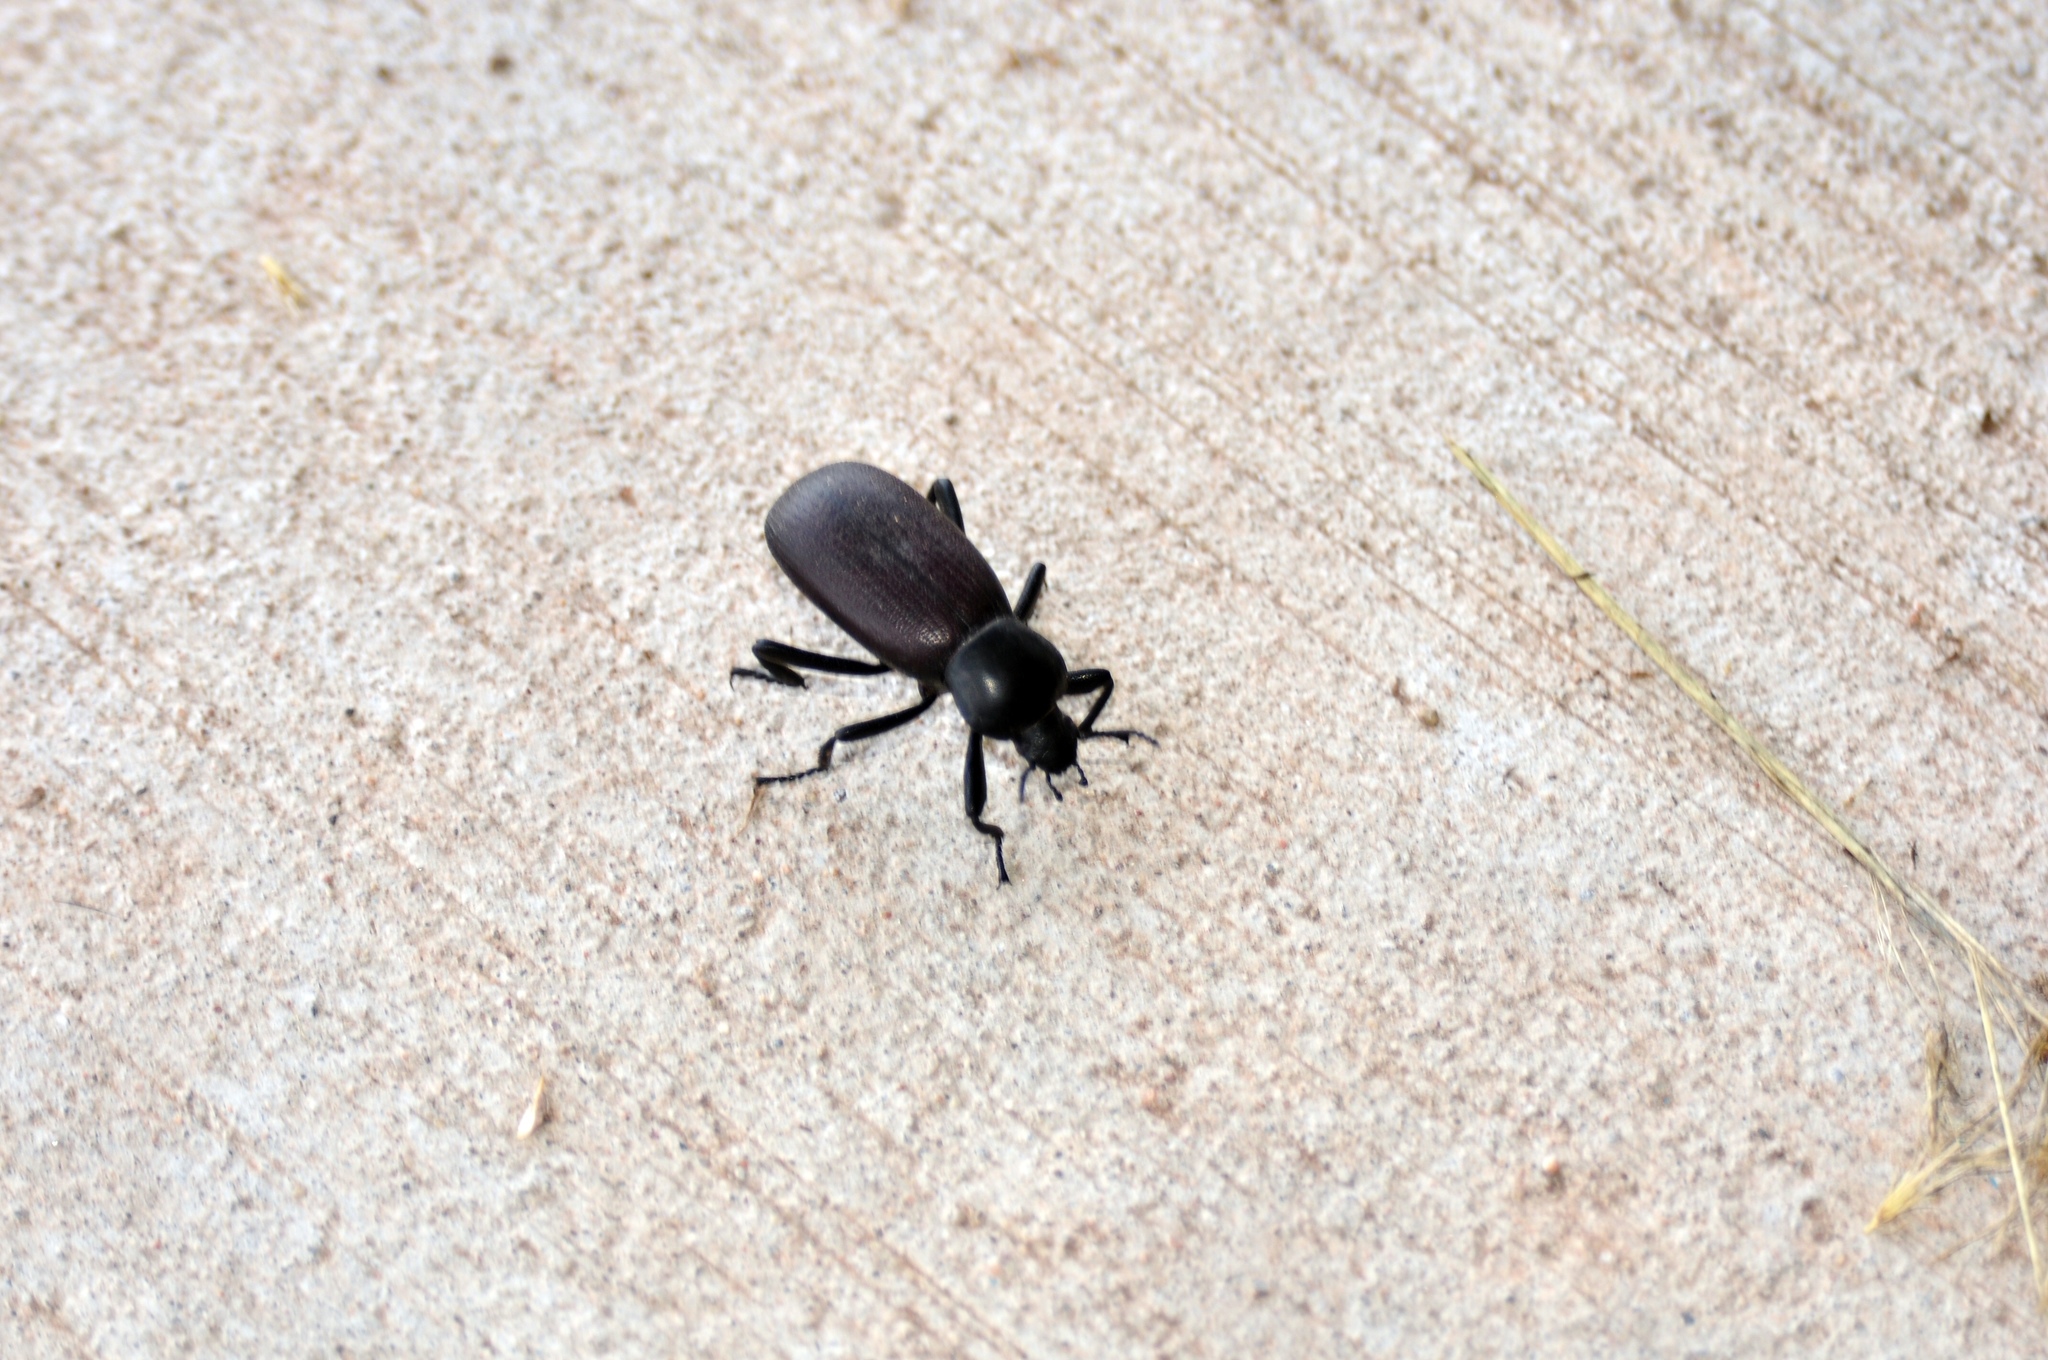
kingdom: Animalia
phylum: Arthropoda
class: Insecta
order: Coleoptera
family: Tenebrionidae
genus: Eleodes
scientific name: Eleodes obscura
